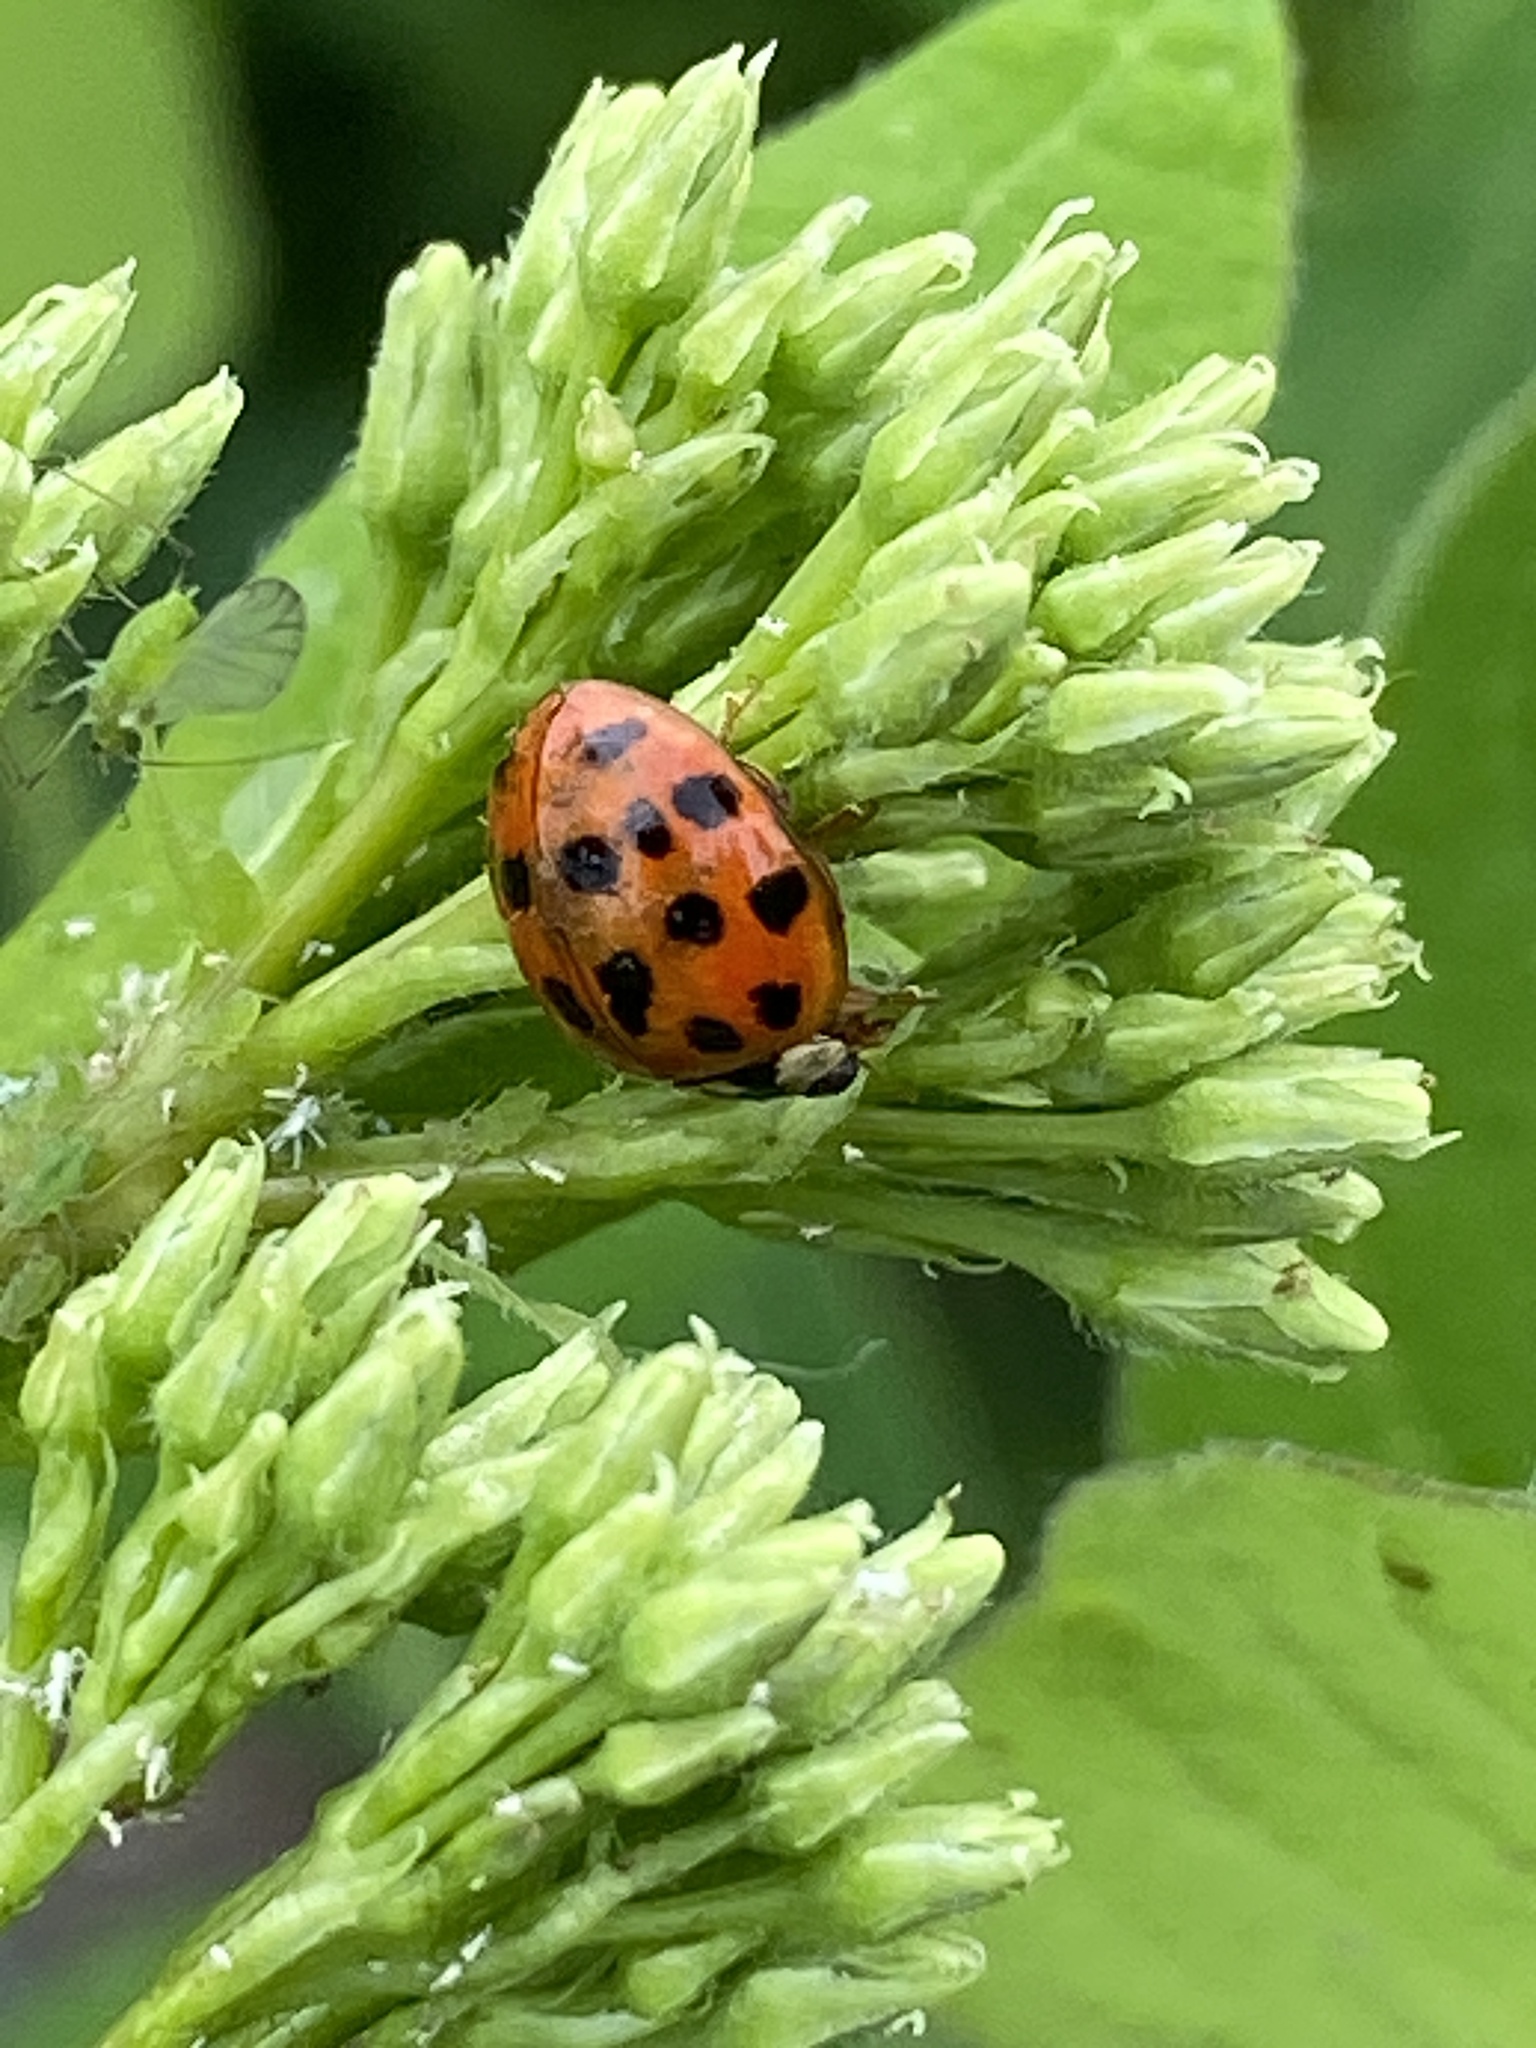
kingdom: Animalia
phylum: Arthropoda
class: Insecta
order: Coleoptera
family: Coccinellidae
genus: Harmonia
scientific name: Harmonia axyridis
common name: Harlequin ladybird
